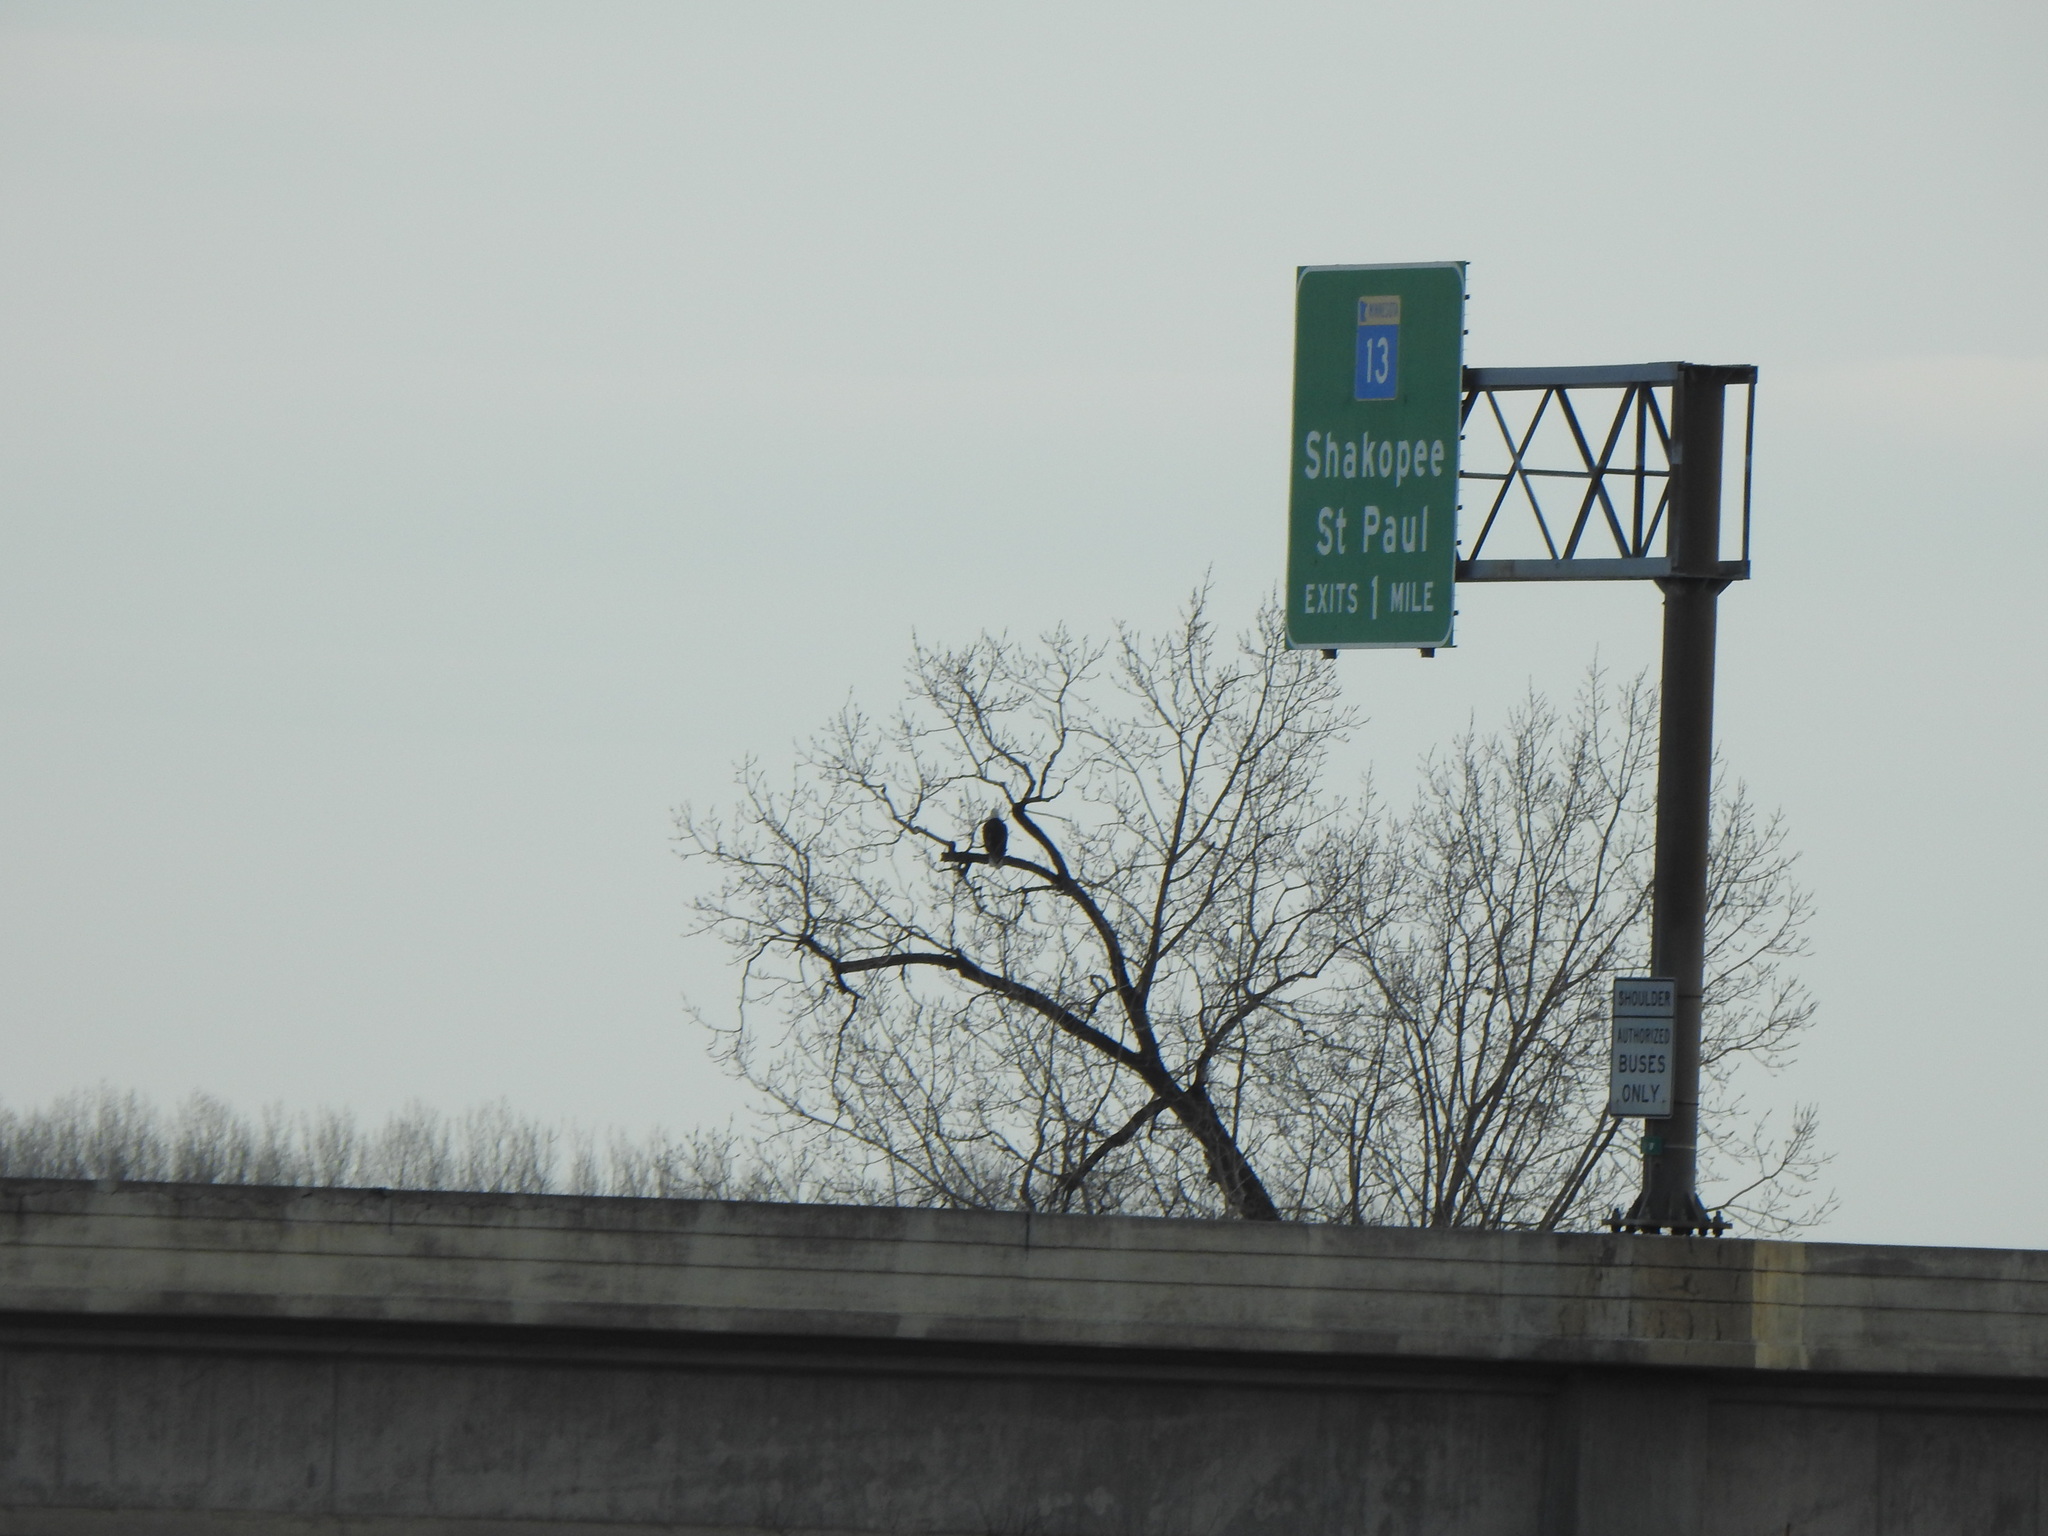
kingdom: Animalia
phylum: Chordata
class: Aves
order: Accipitriformes
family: Accipitridae
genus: Haliaeetus
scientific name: Haliaeetus leucocephalus
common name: Bald eagle
